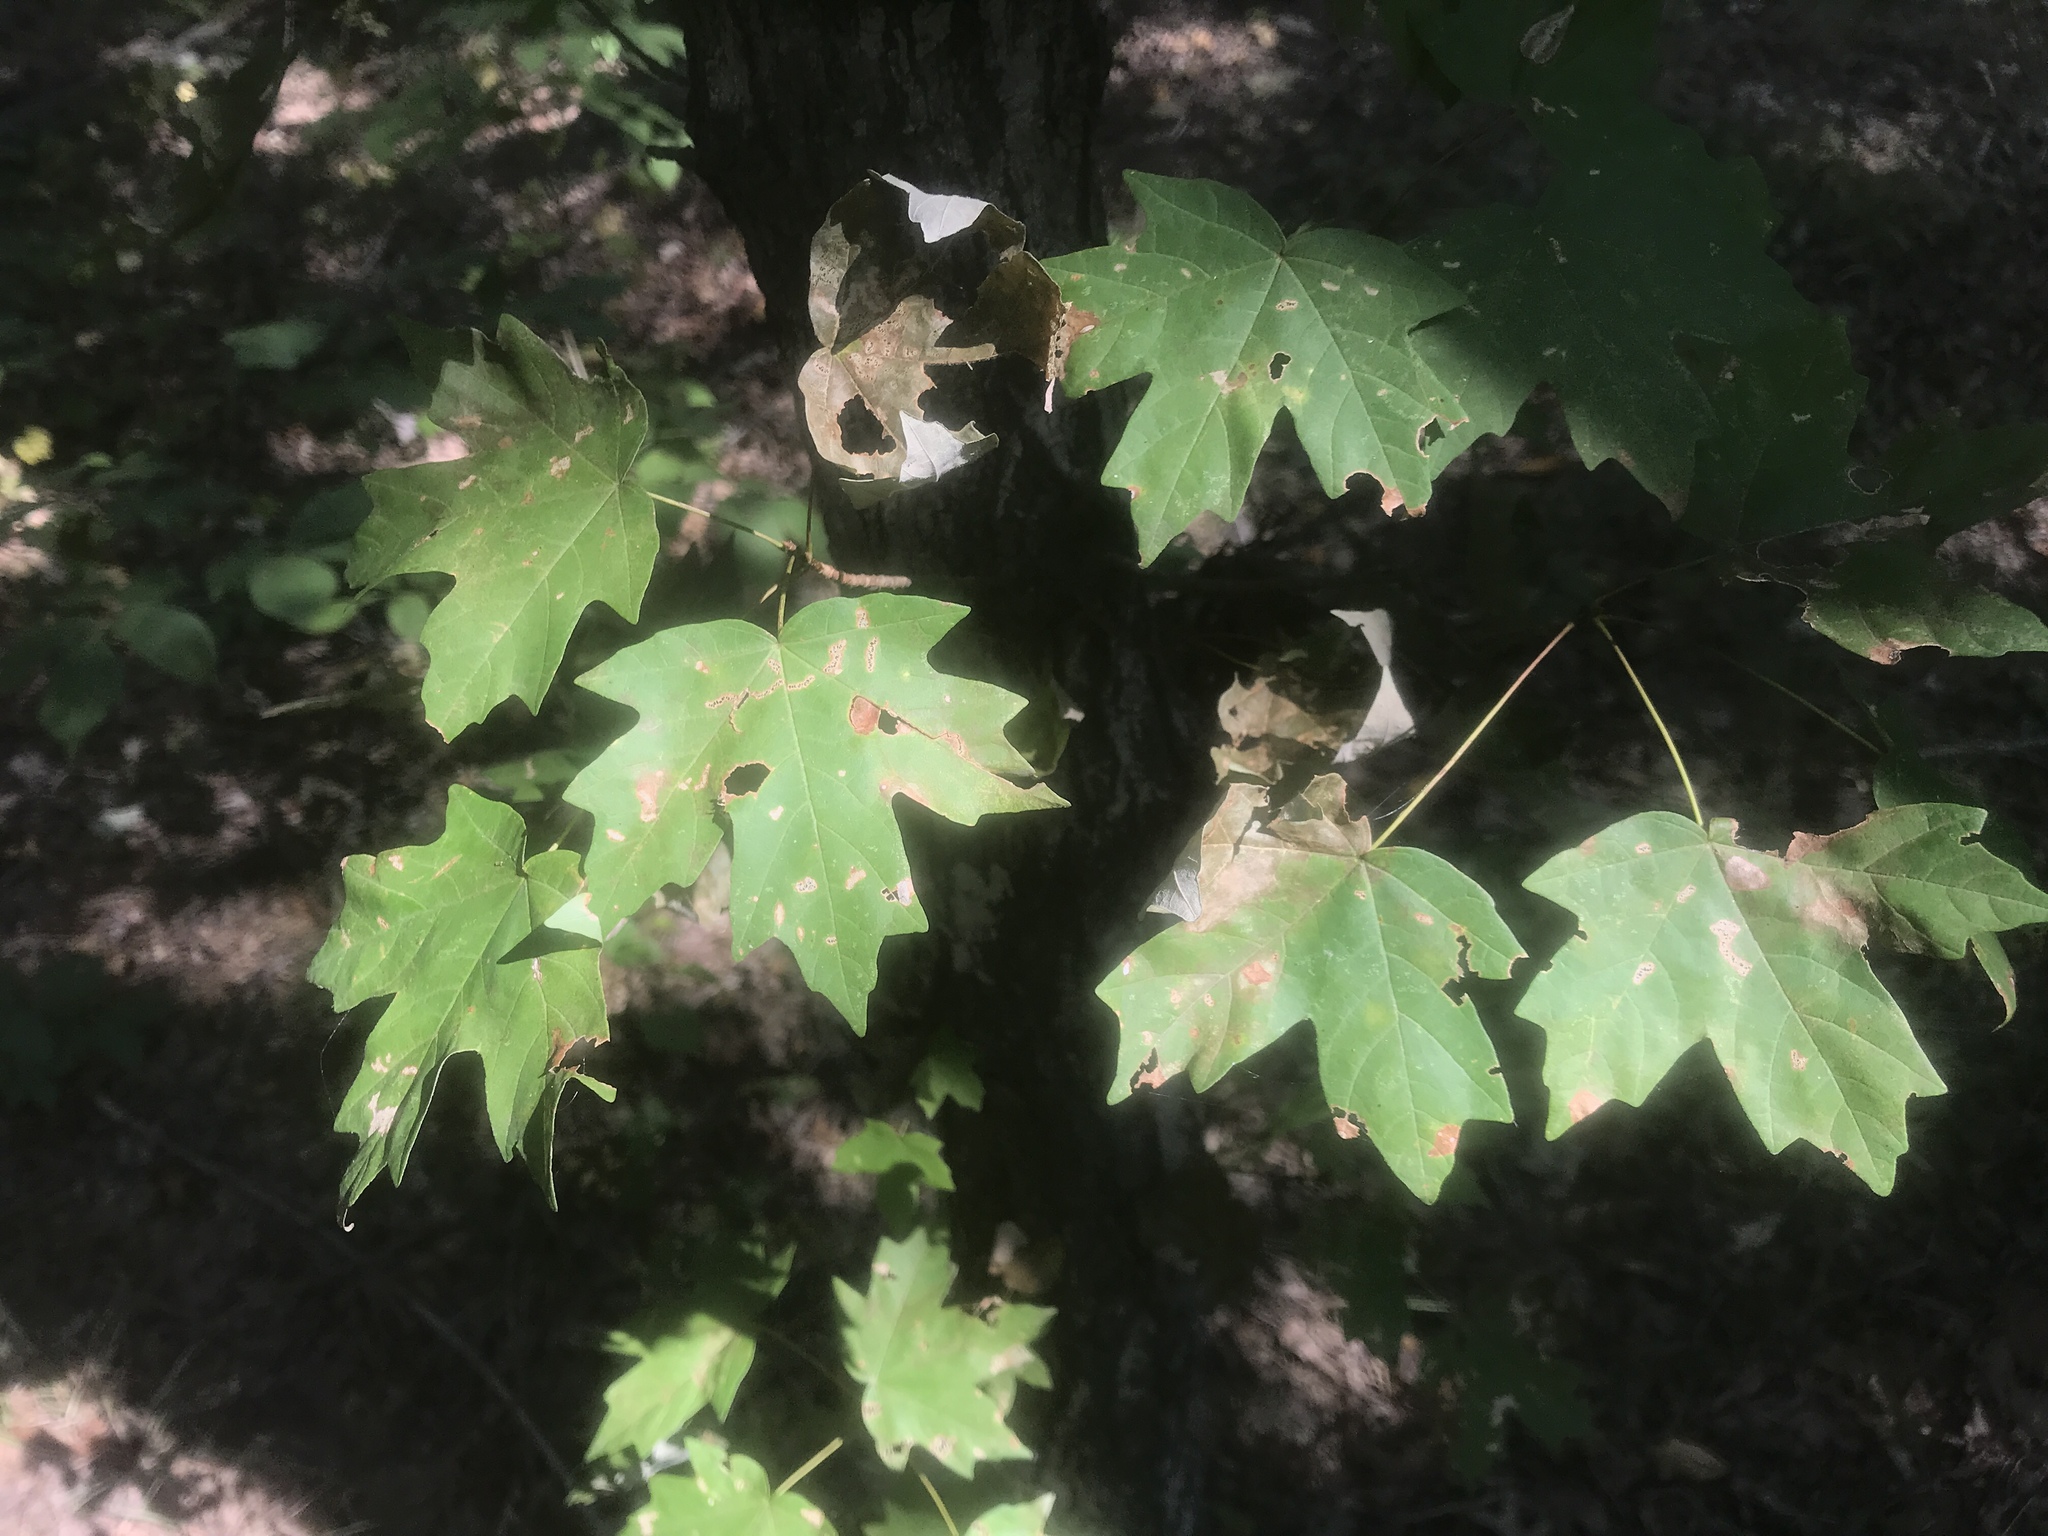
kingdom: Plantae
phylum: Tracheophyta
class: Magnoliopsida
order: Sapindales
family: Sapindaceae
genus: Acer
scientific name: Acer floridanum
